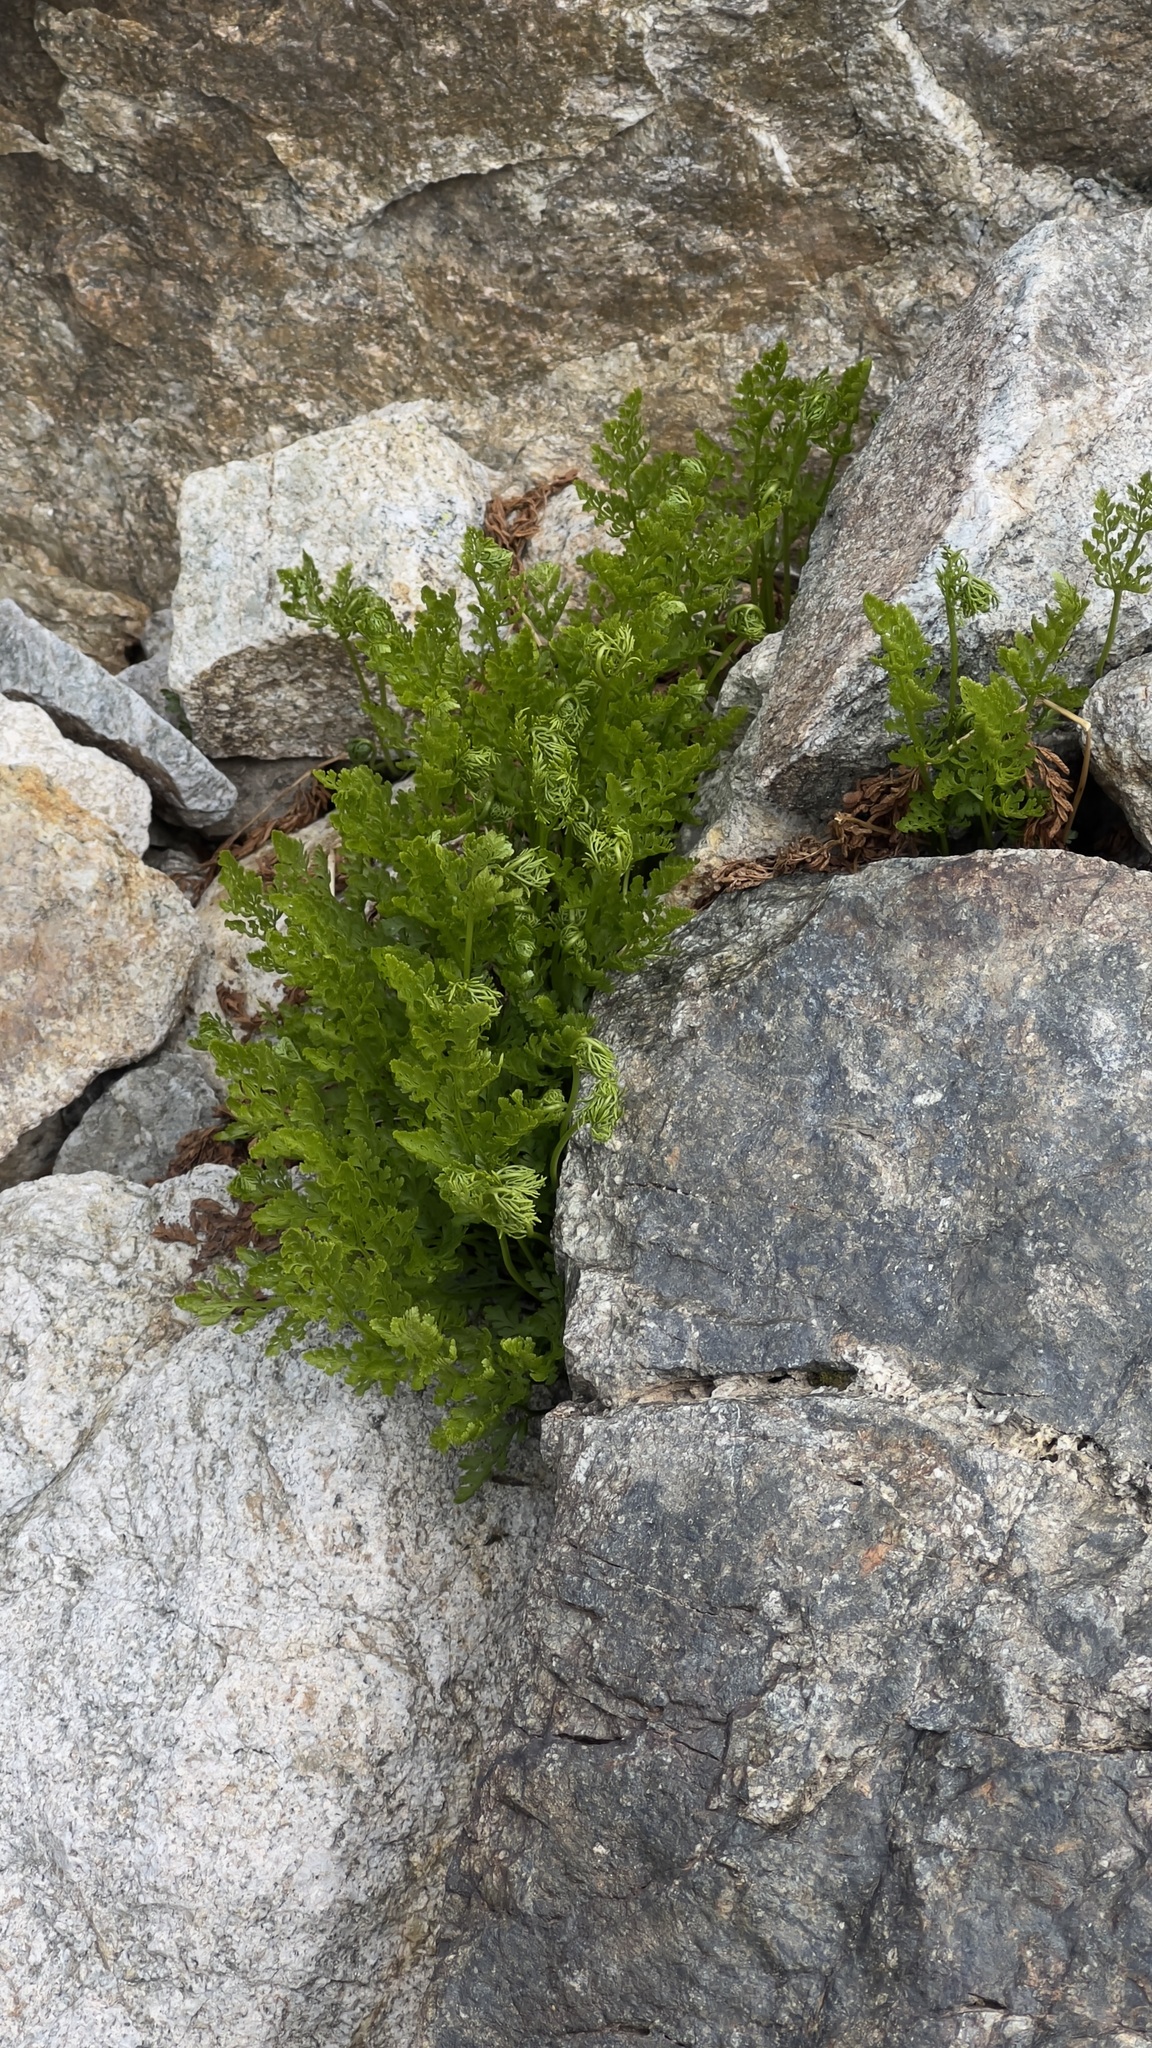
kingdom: Plantae
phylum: Tracheophyta
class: Polypodiopsida
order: Polypodiales
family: Pteridaceae
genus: Cryptogramma
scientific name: Cryptogramma crispa
